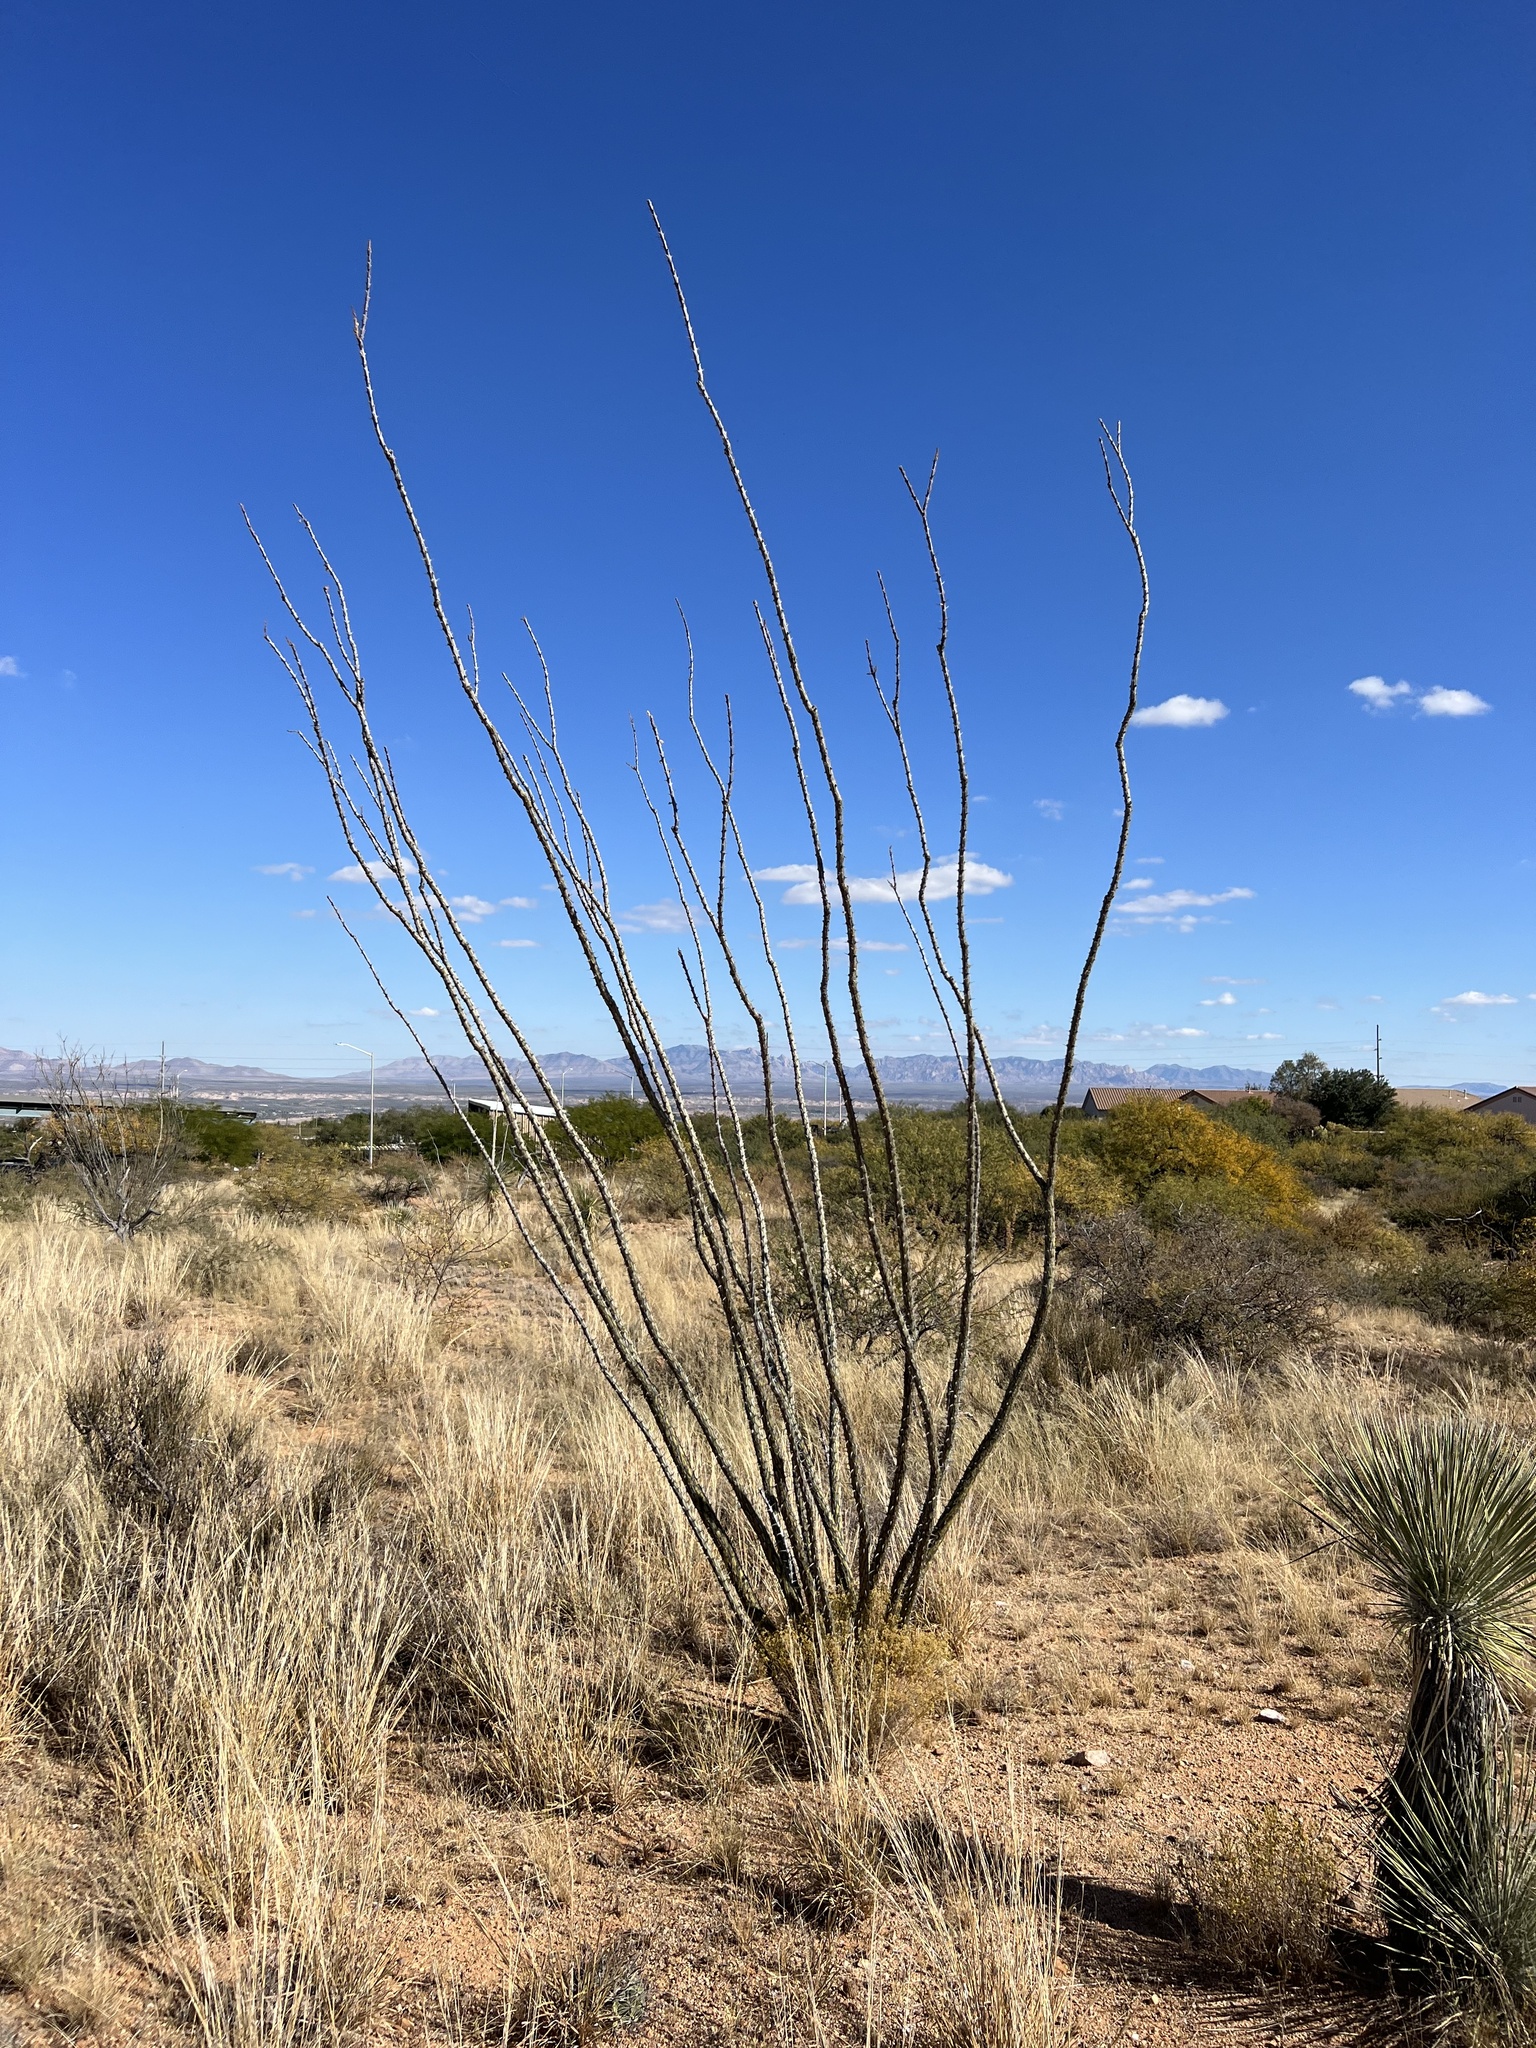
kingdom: Plantae
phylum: Tracheophyta
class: Magnoliopsida
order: Ericales
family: Fouquieriaceae
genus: Fouquieria
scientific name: Fouquieria splendens
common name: Vine-cactus
